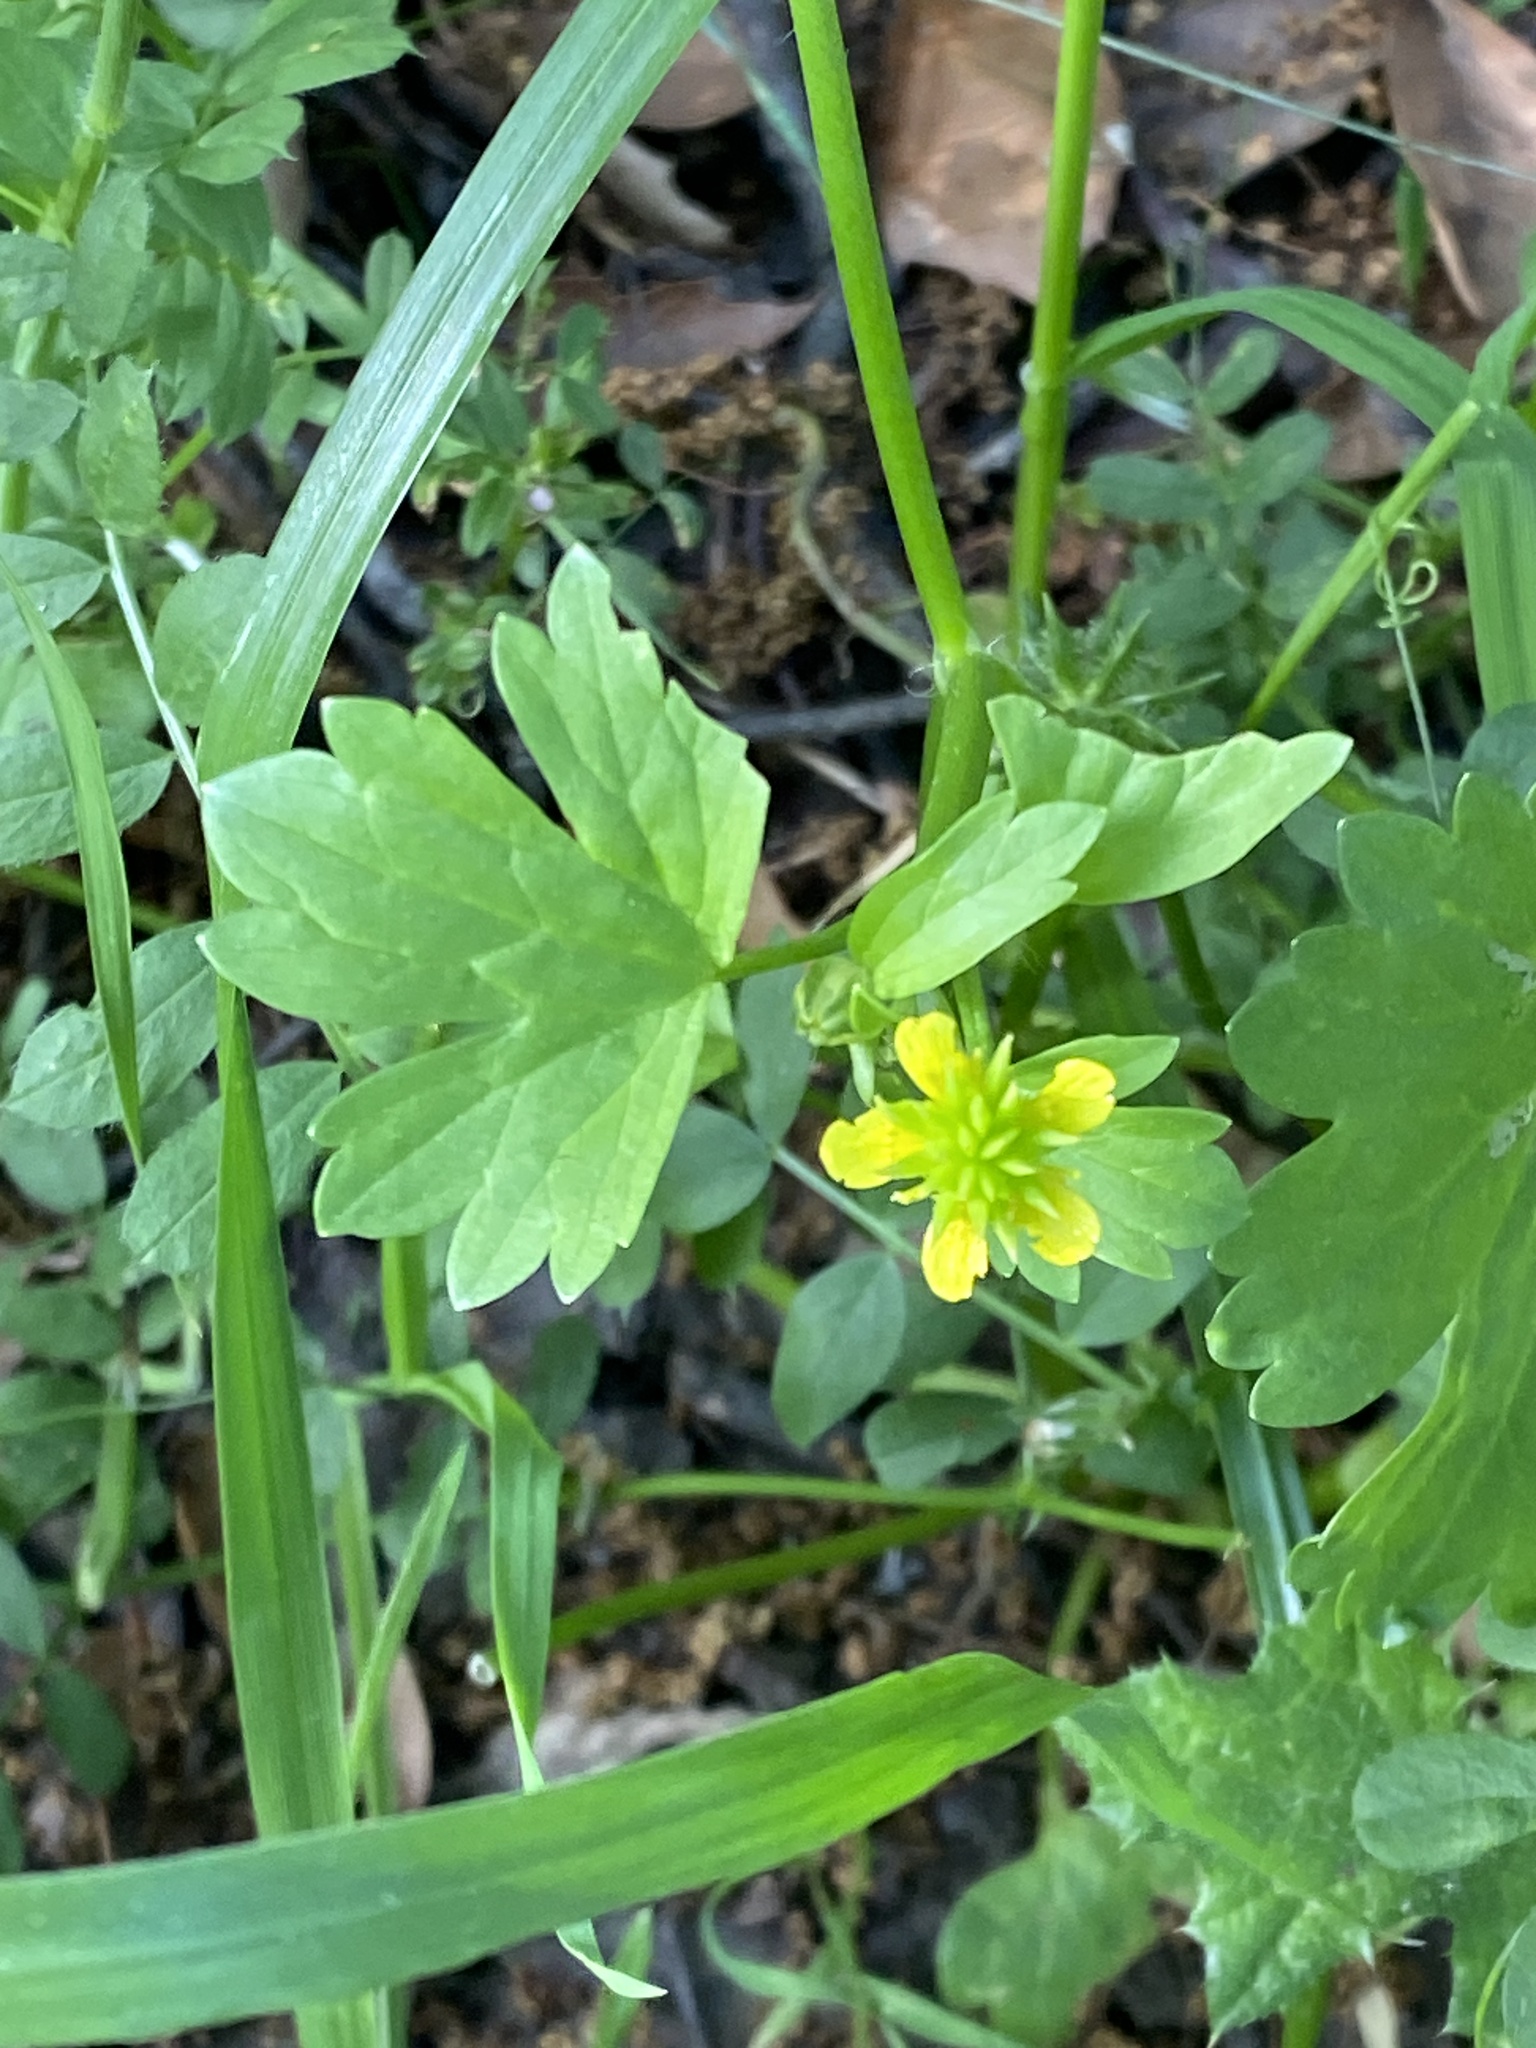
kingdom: Plantae
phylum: Tracheophyta
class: Magnoliopsida
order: Ranunculales
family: Ranunculaceae
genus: Ranunculus
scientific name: Ranunculus muricatus
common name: Rough-fruited buttercup
